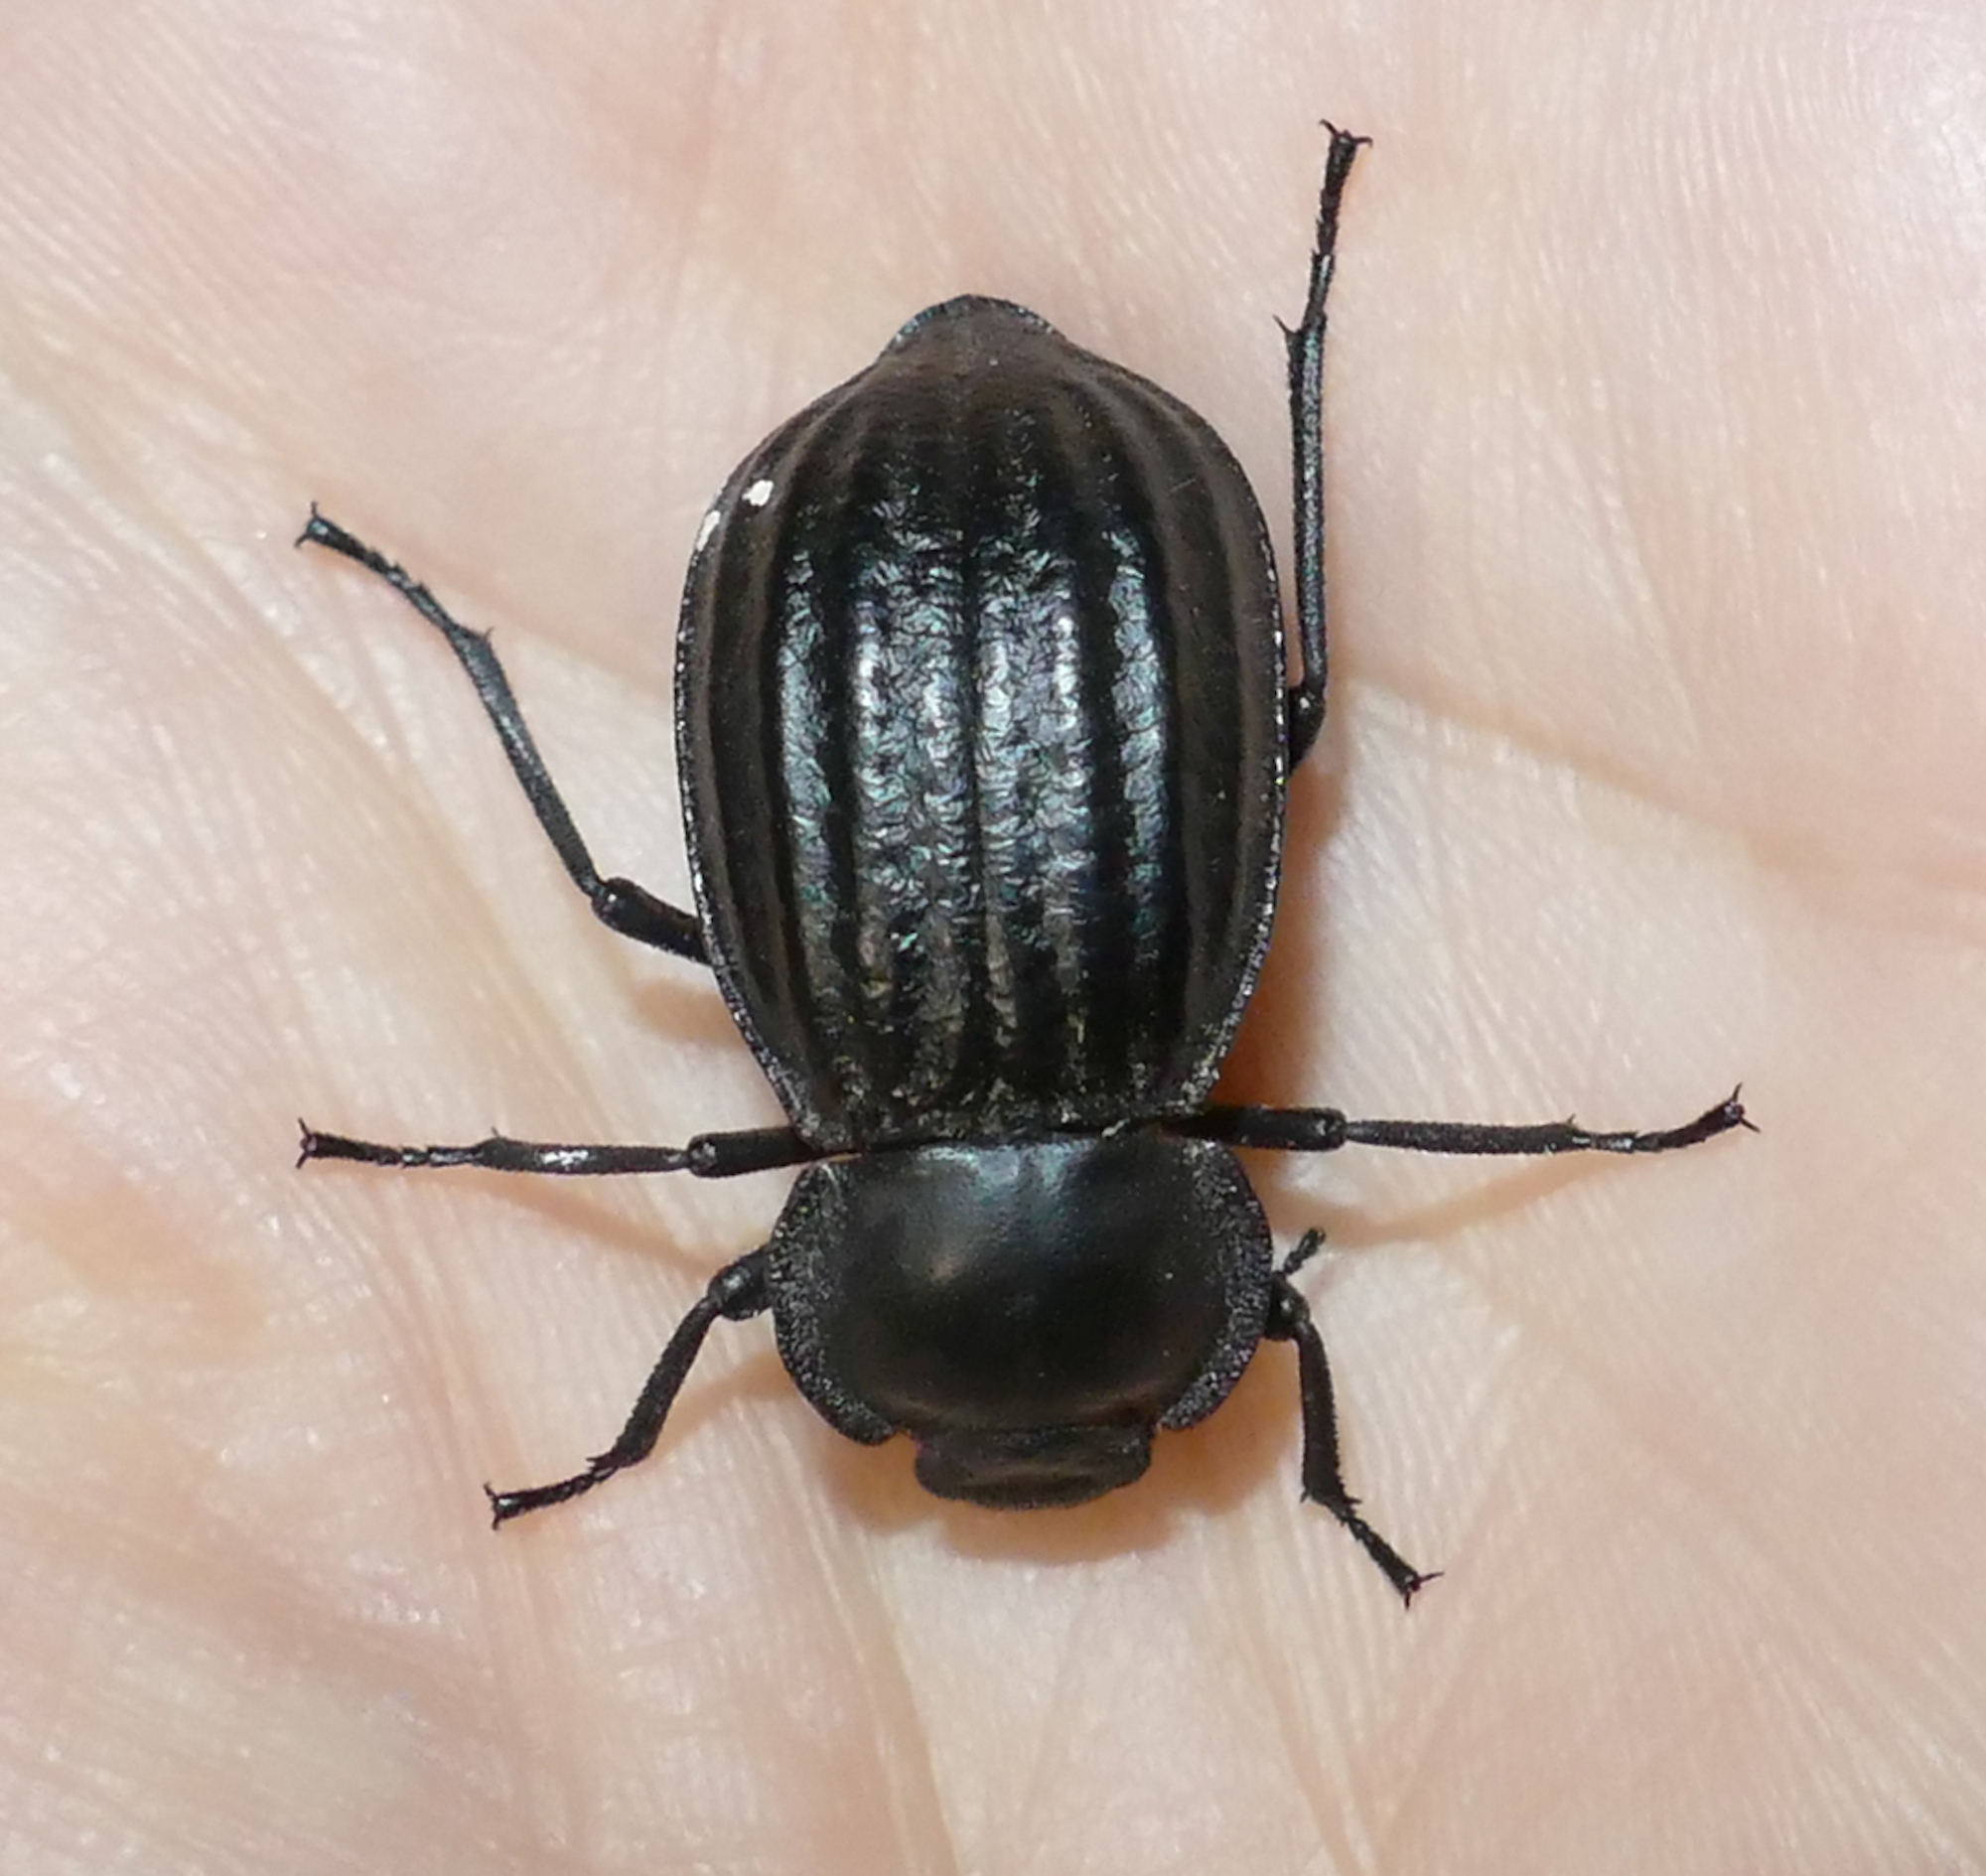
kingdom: Animalia
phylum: Arthropoda
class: Insecta
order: Coleoptera
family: Tenebrionidae
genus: Stenomorpha
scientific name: Stenomorpha corrugans
